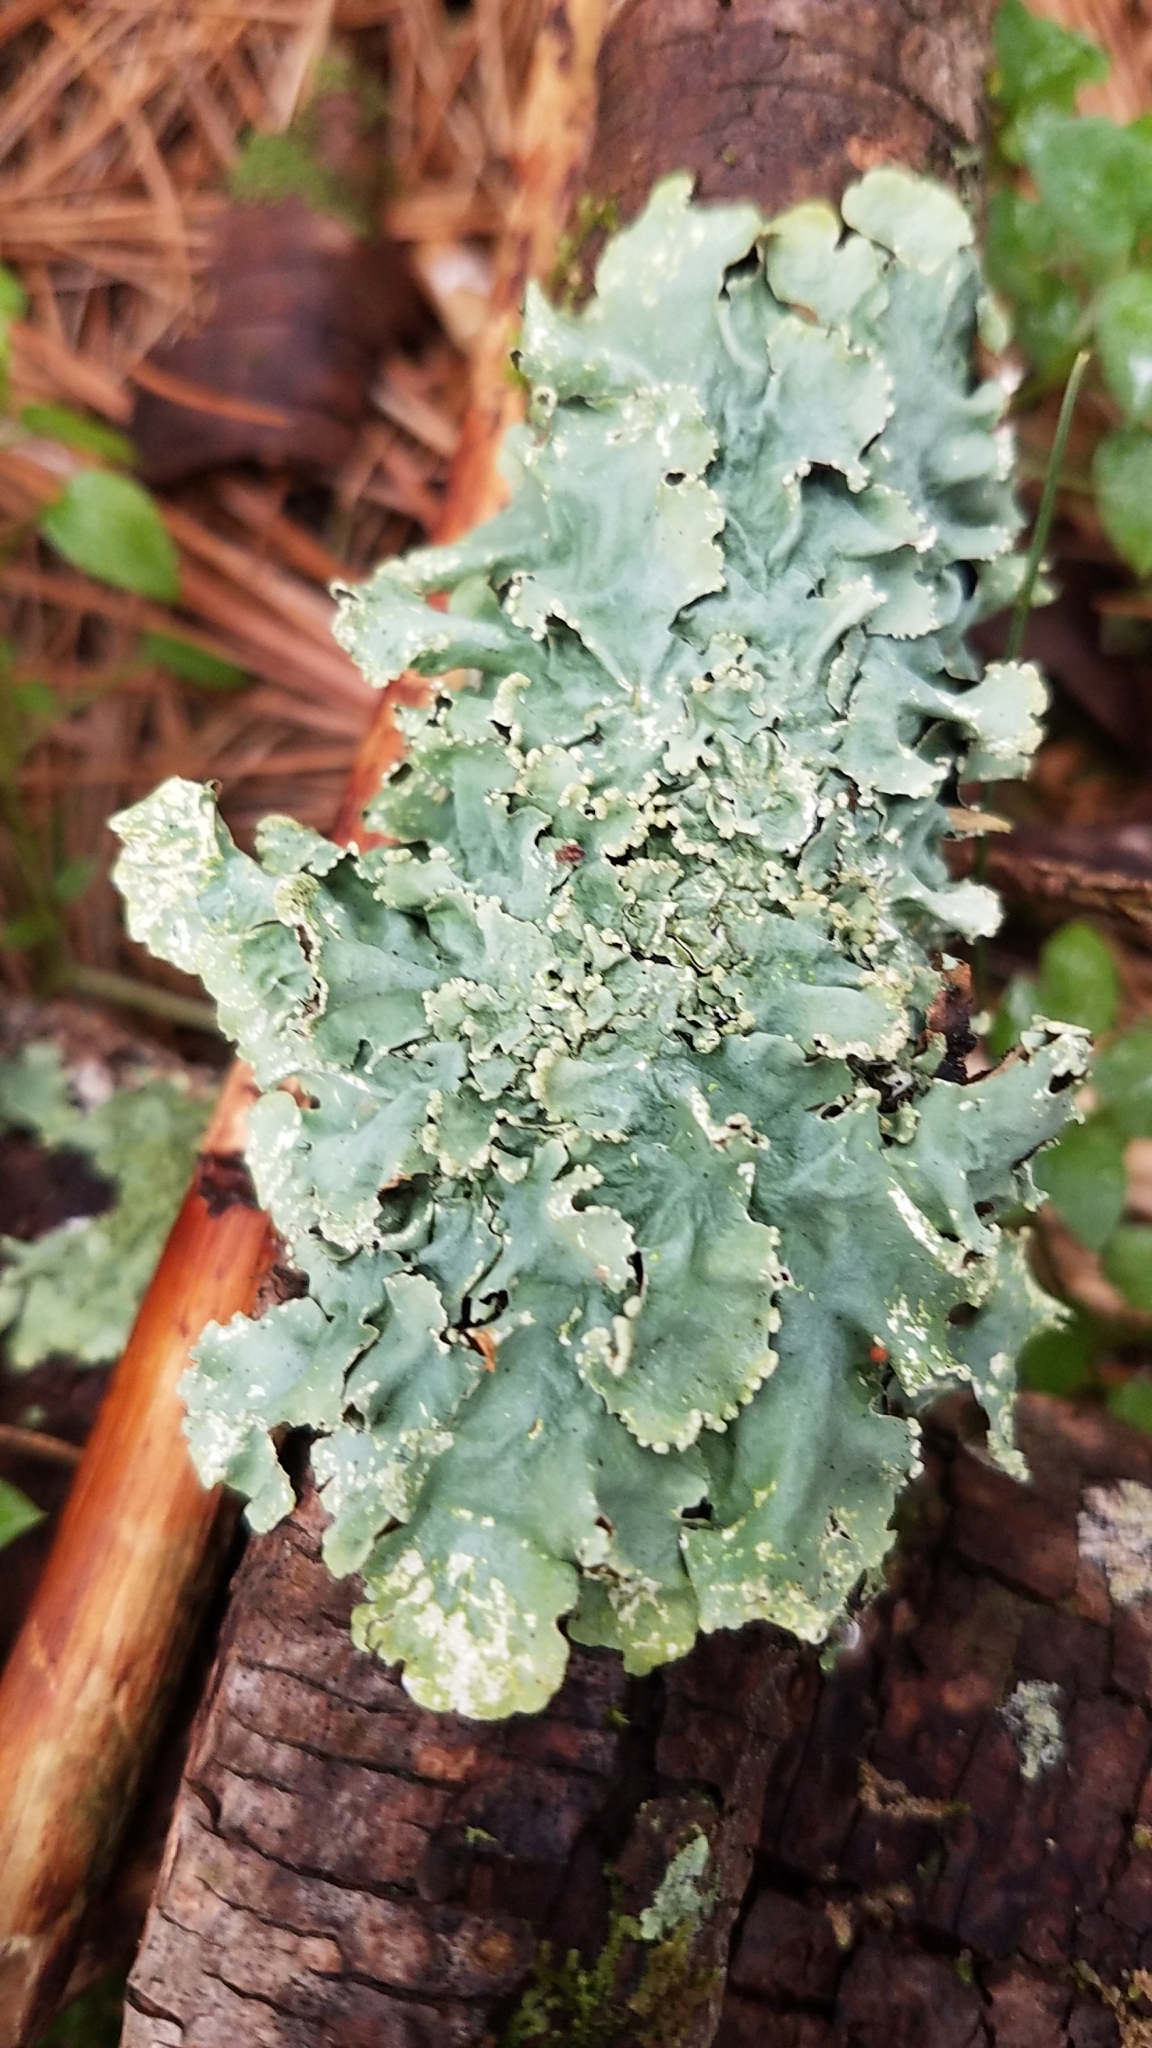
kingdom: Fungi
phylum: Ascomycota
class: Lecanoromycetes
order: Lecanorales
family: Parmeliaceae
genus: Flavoparmelia
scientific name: Flavoparmelia caperata
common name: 40-mile per hour lichen
